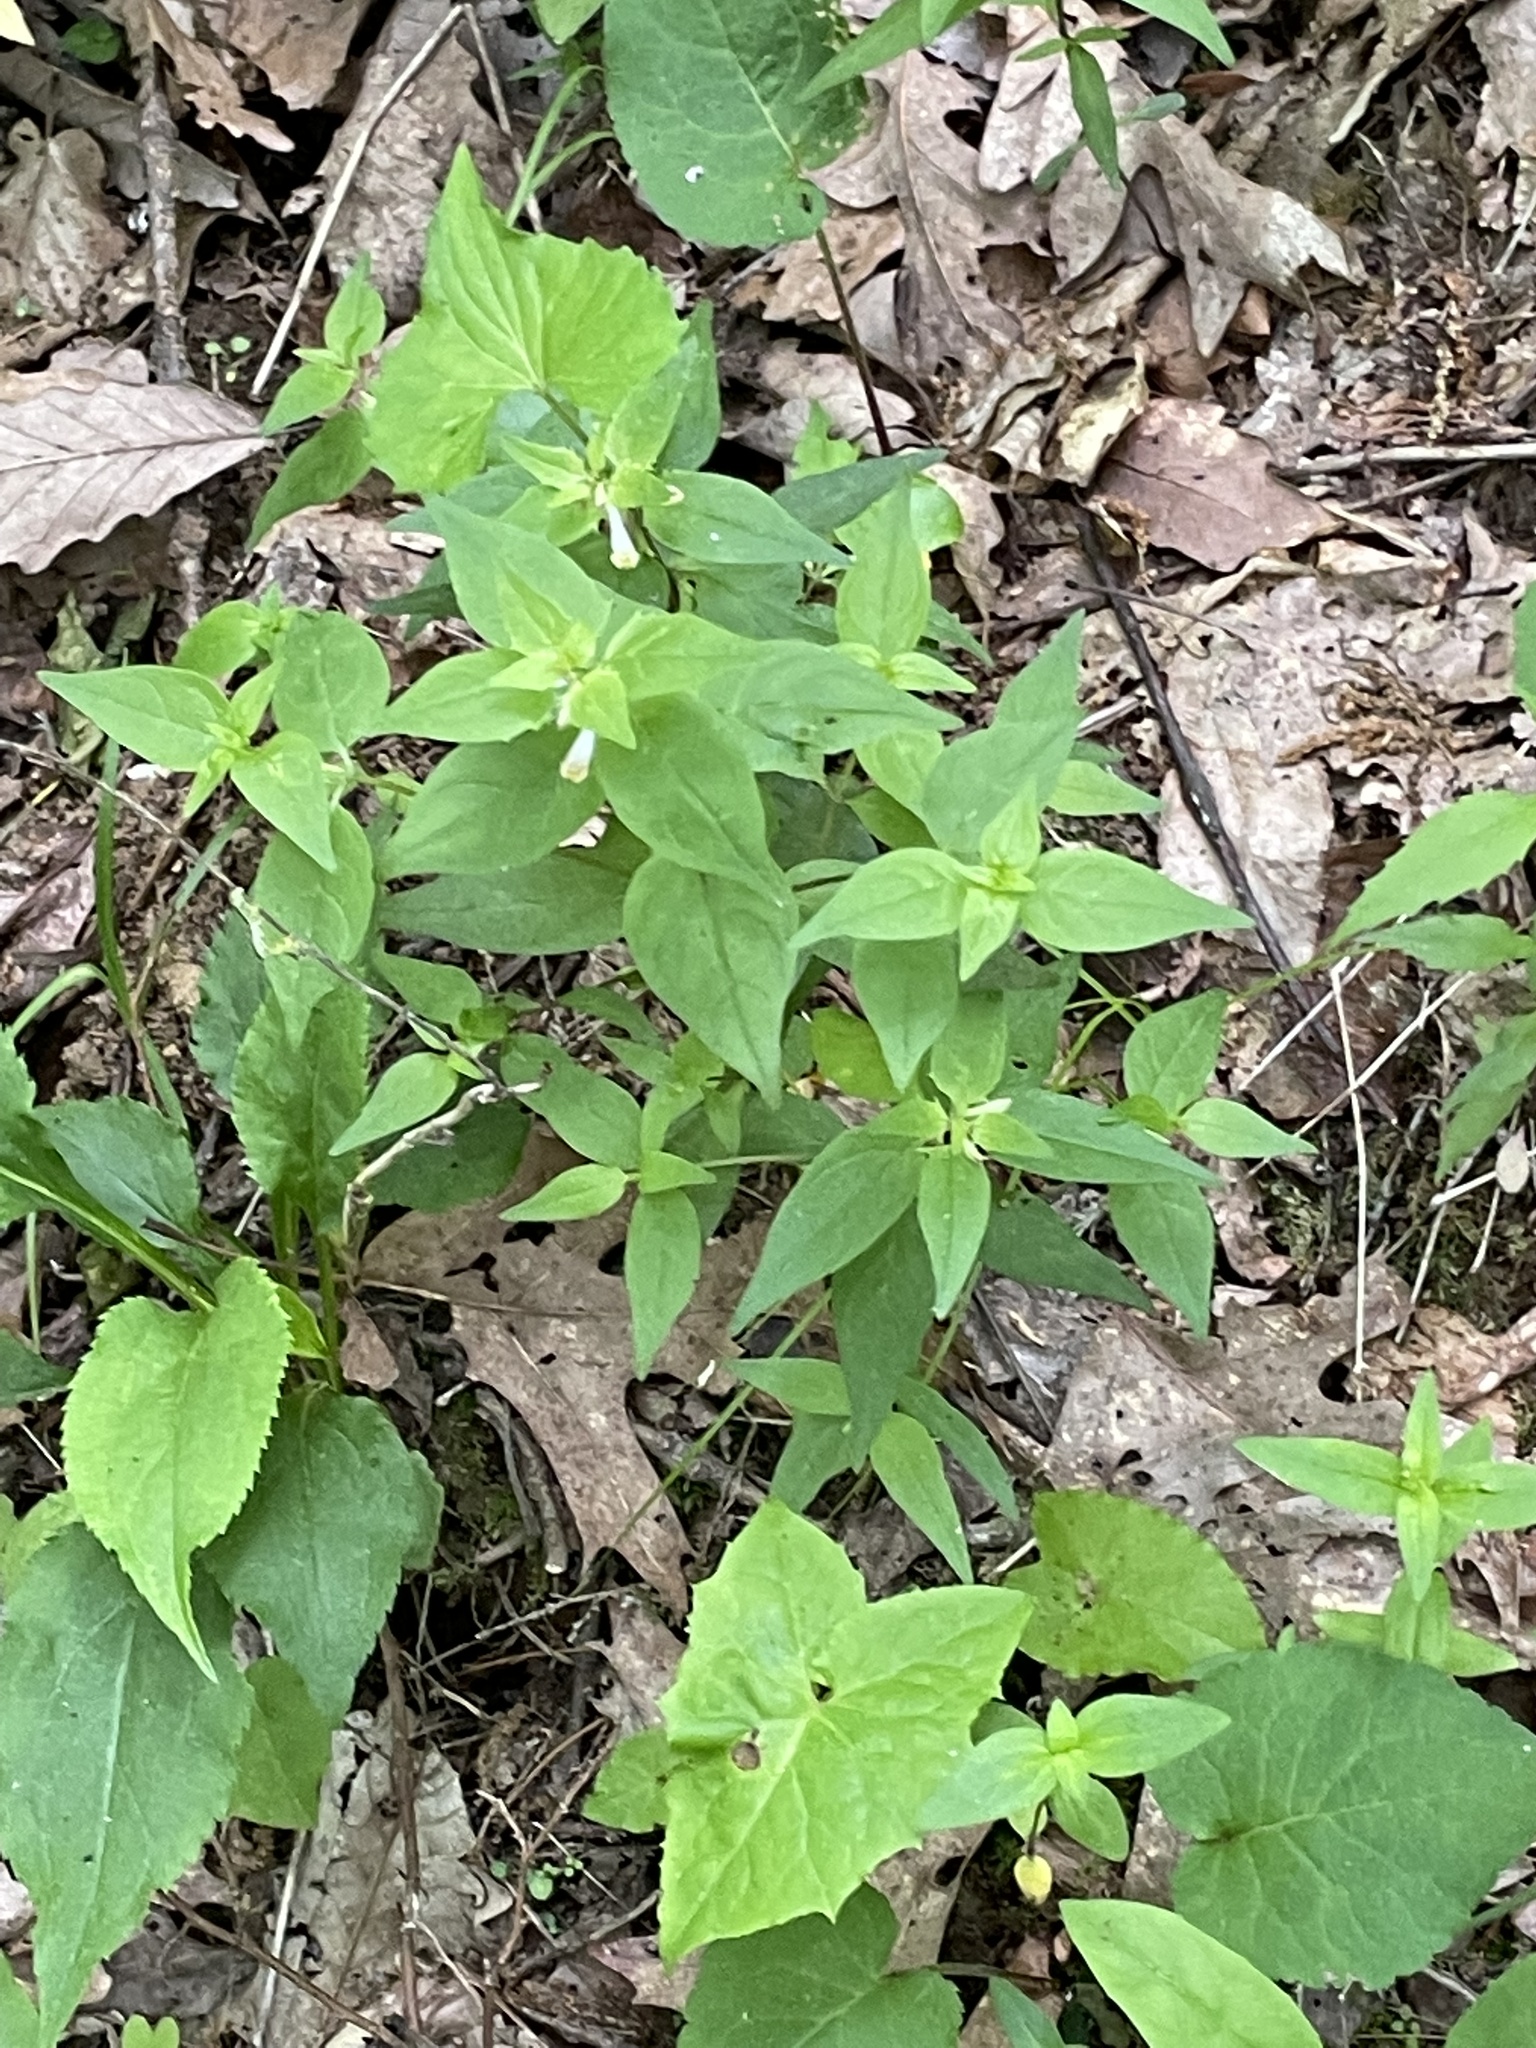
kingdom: Plantae
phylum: Tracheophyta
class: Magnoliopsida
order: Lamiales
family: Orobanchaceae
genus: Melampyrum
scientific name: Melampyrum lineare
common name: American cow-wheat
